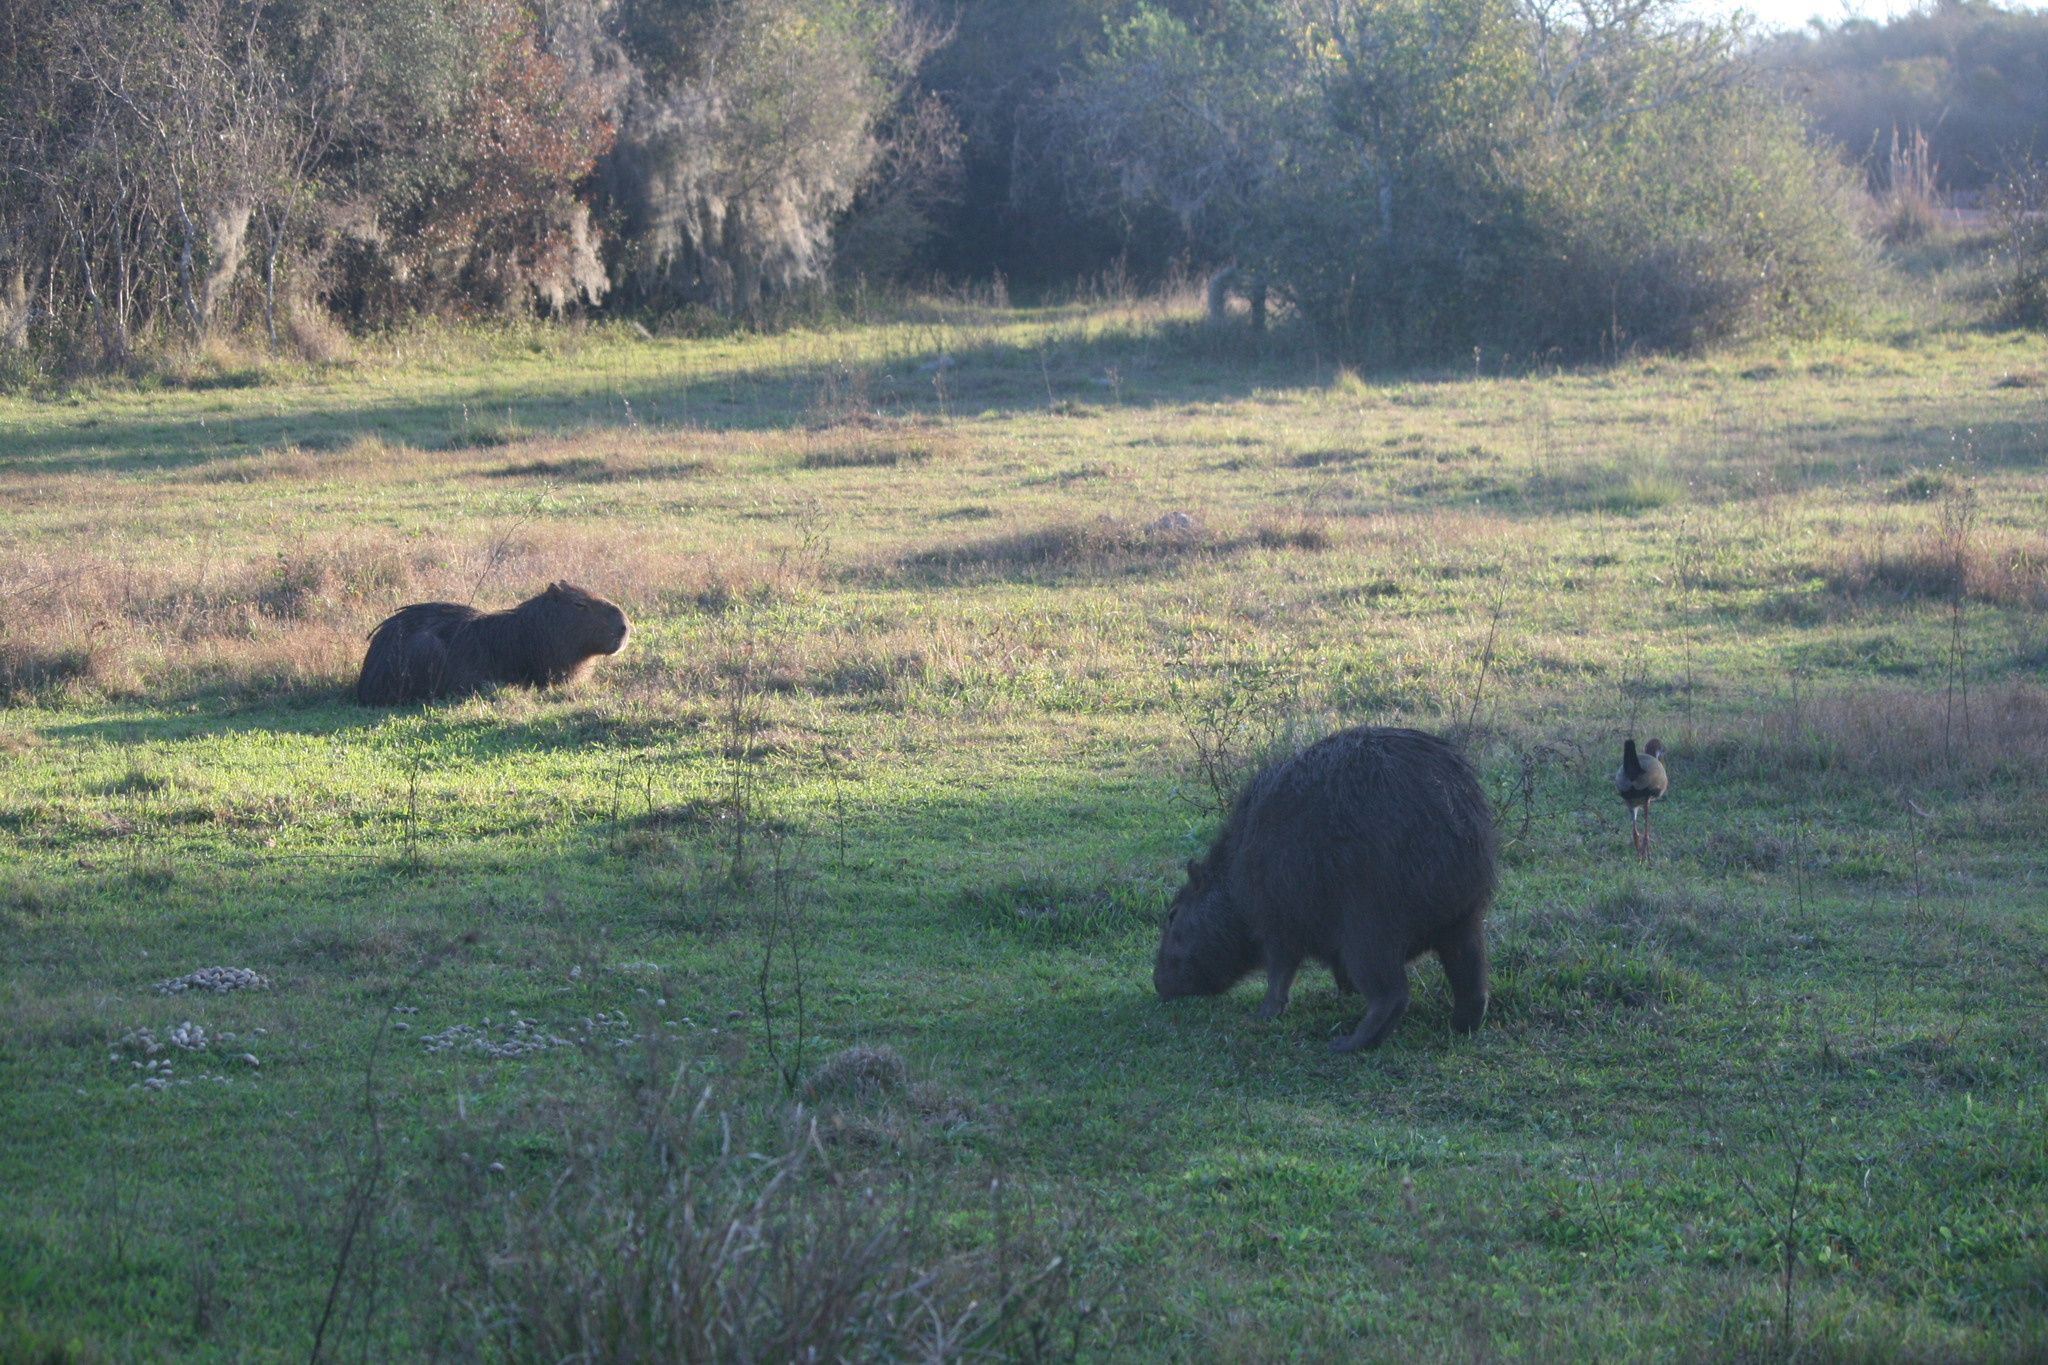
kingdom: Animalia
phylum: Chordata
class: Mammalia
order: Rodentia
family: Caviidae
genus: Hydrochoerus
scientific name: Hydrochoerus hydrochaeris
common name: Capybara
